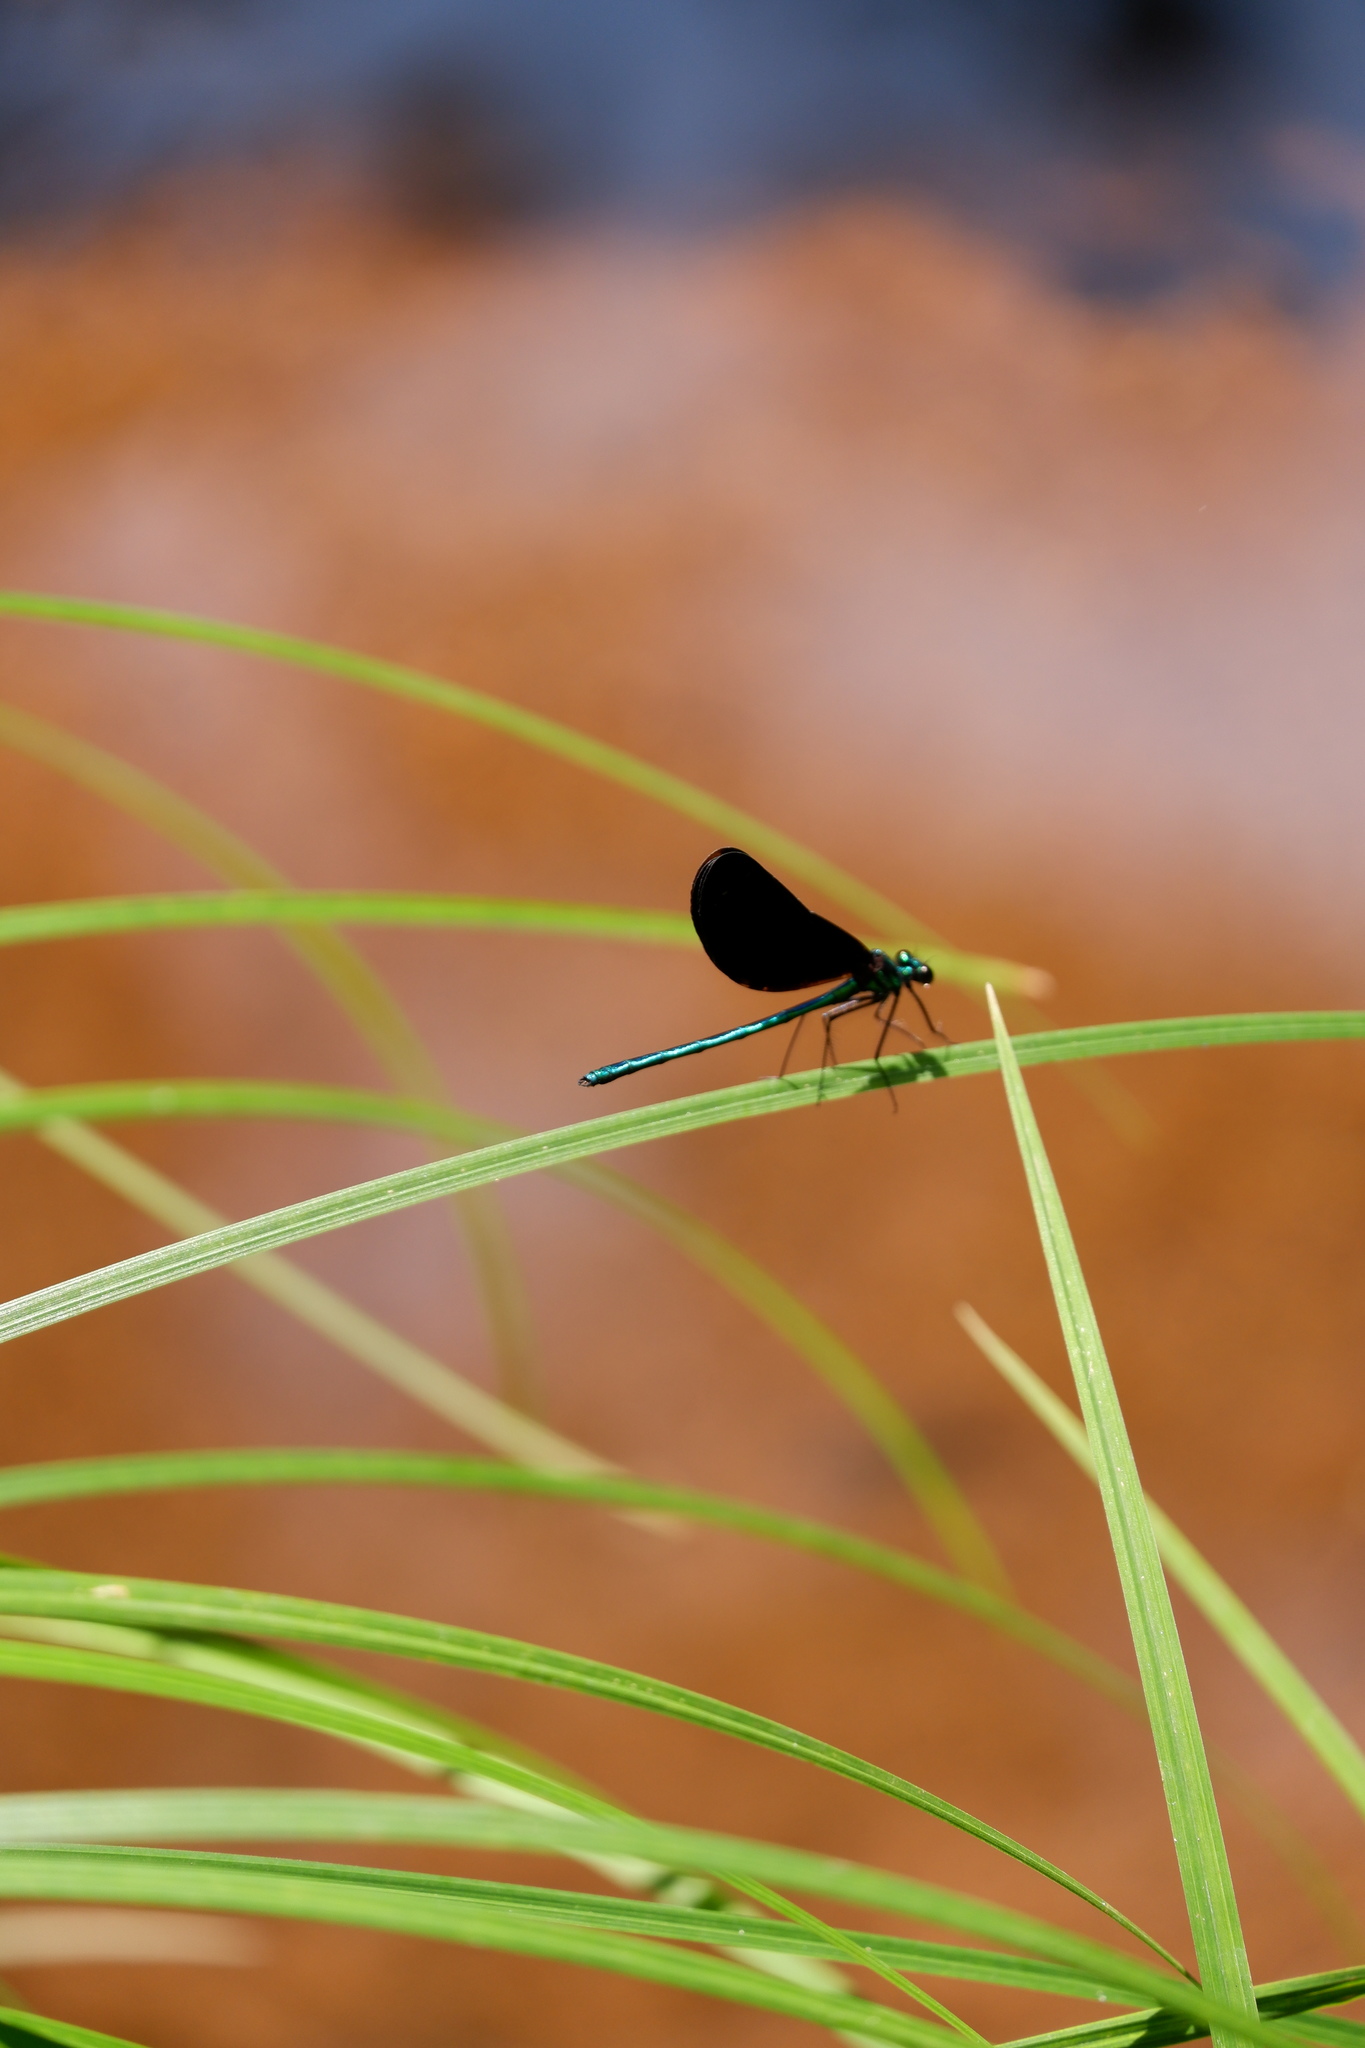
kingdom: Animalia
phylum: Arthropoda
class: Insecta
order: Odonata
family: Calopterygidae
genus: Calopteryx
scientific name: Calopteryx maculata
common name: Ebony jewelwing
